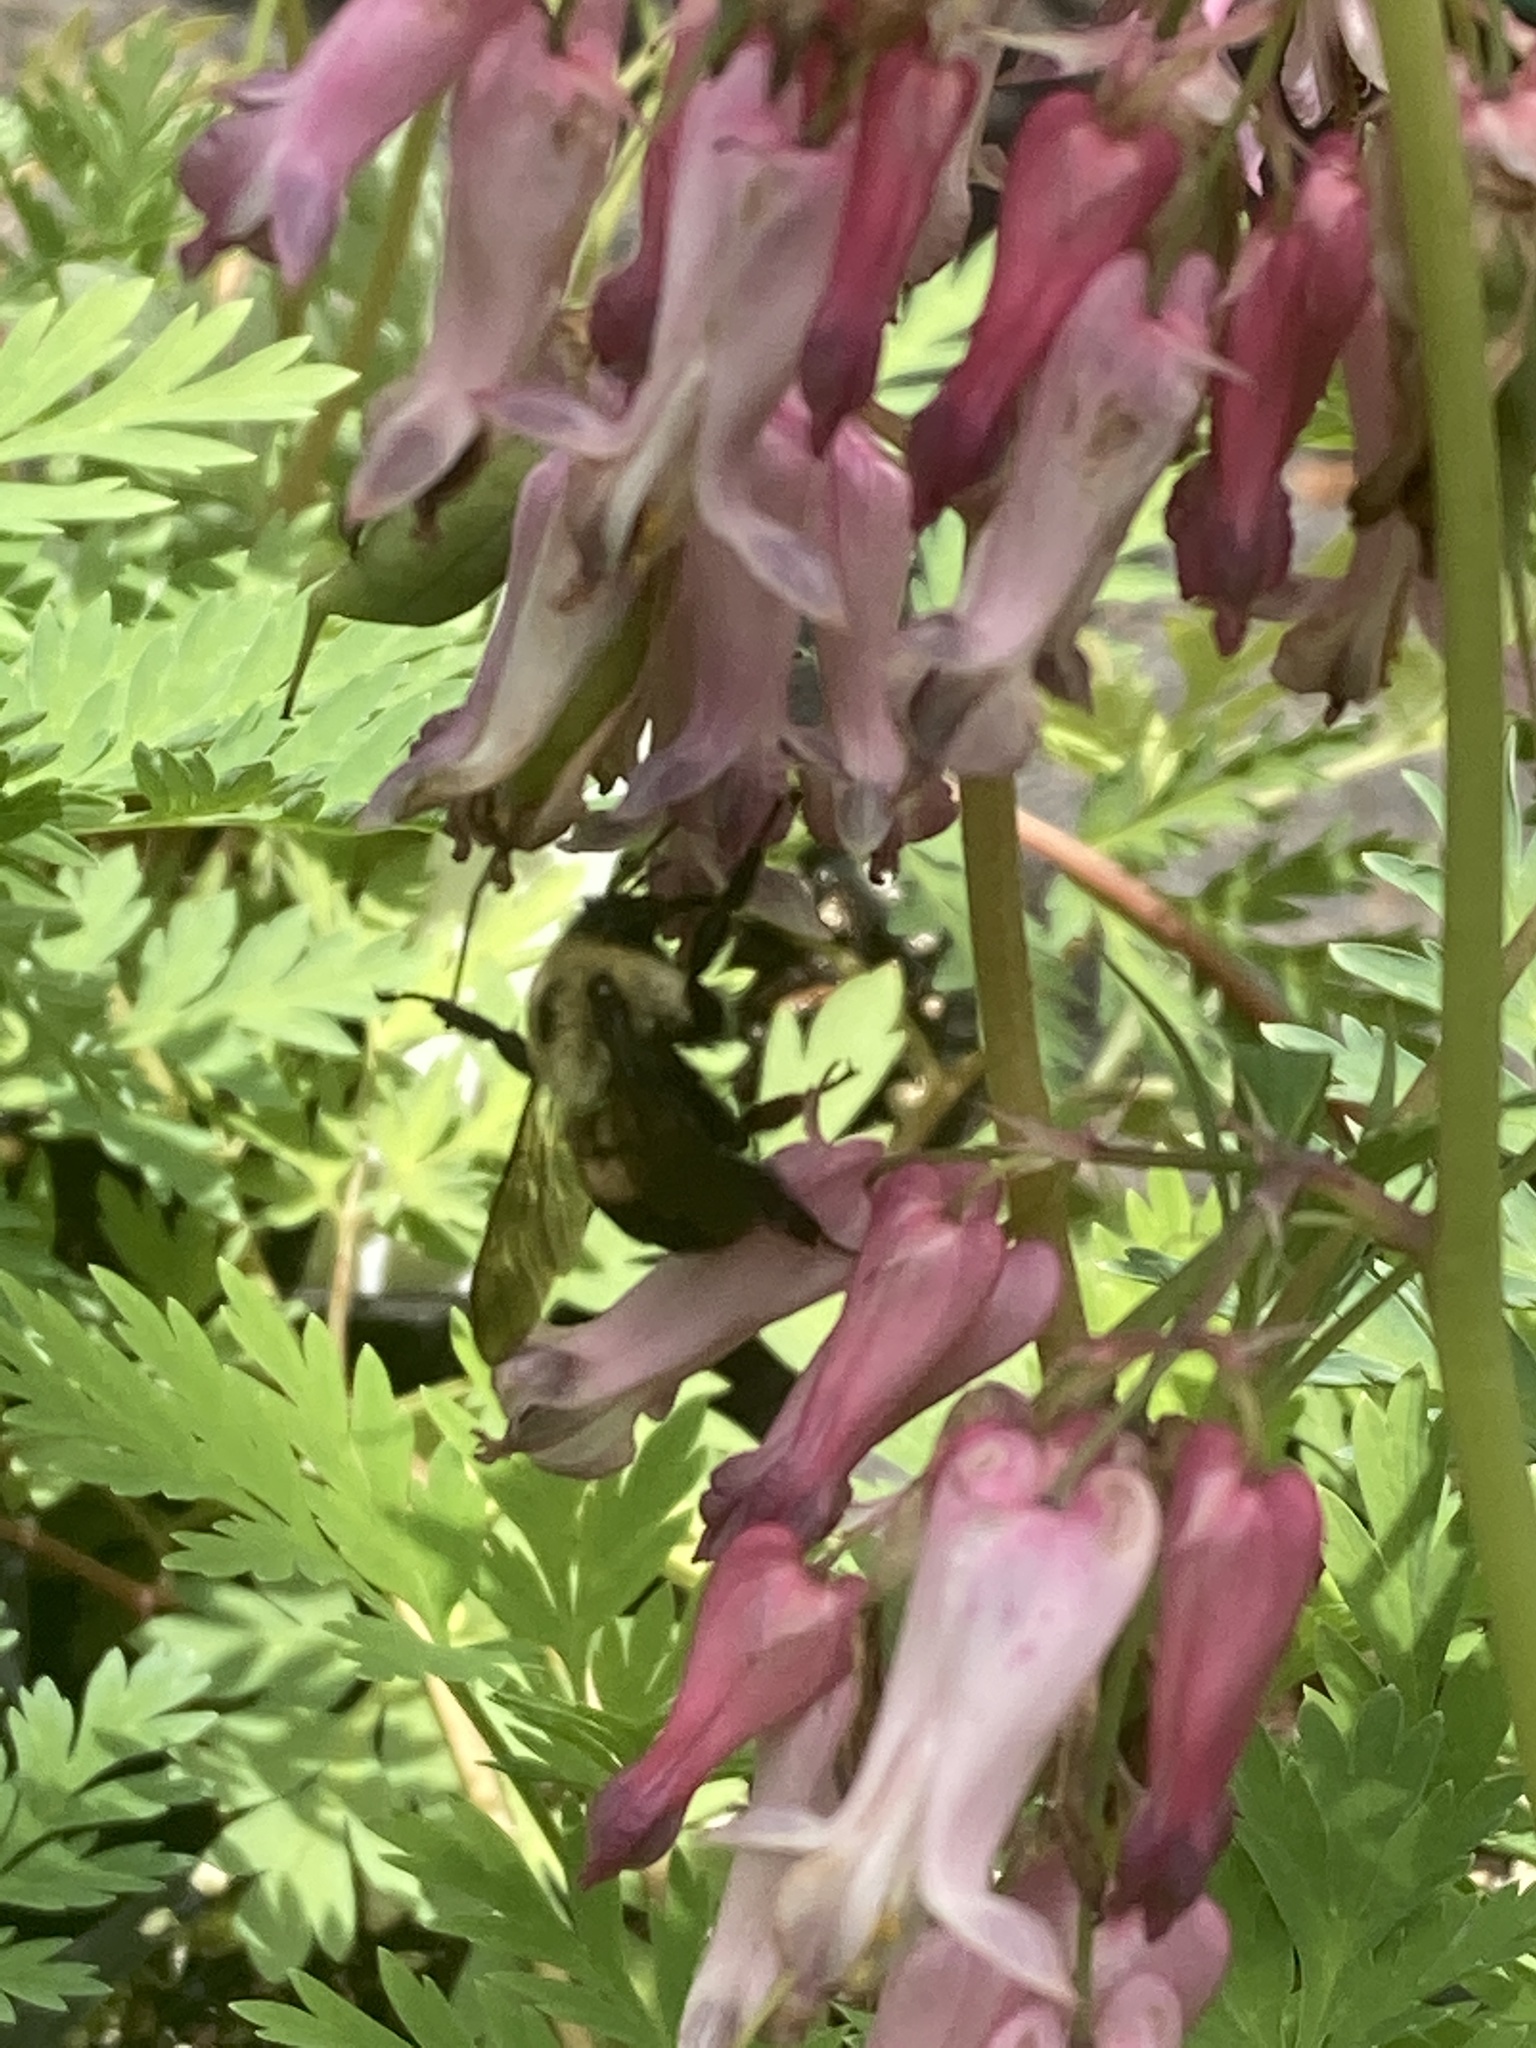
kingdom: Animalia
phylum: Arthropoda
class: Insecta
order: Hymenoptera
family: Apidae
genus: Bombus
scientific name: Bombus griseocollis
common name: Brown-belted bumble bee
